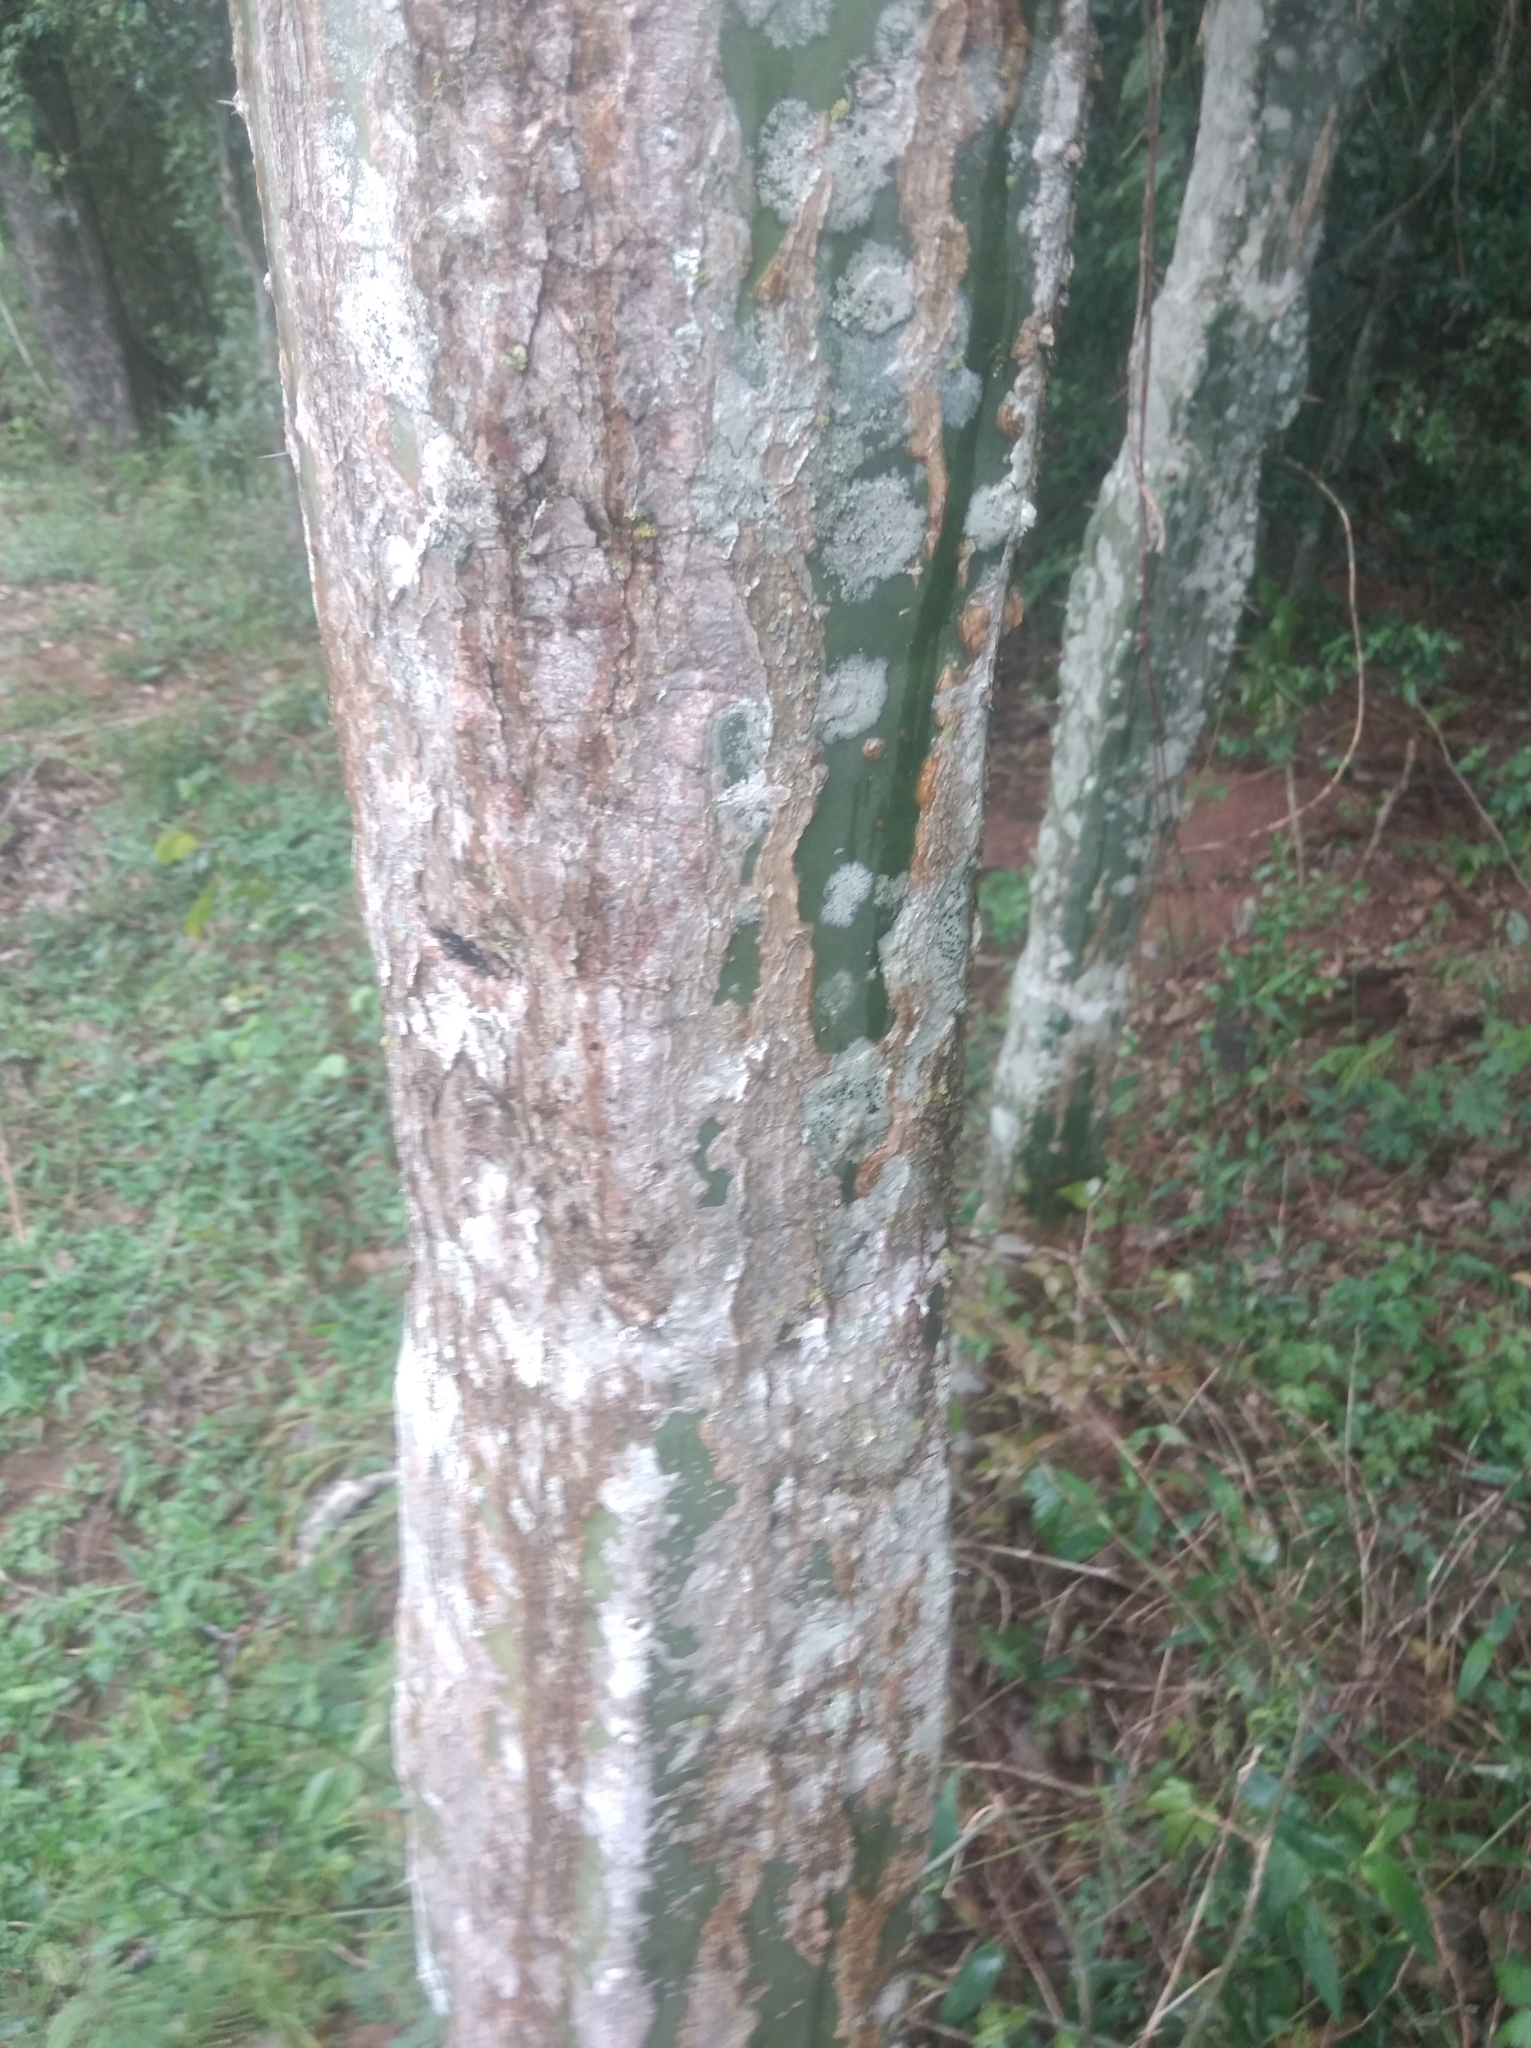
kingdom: Plantae
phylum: Tracheophyta
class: Magnoliopsida
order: Caryophyllales
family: Cactaceae
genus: Cereus
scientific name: Cereus stenogonus
